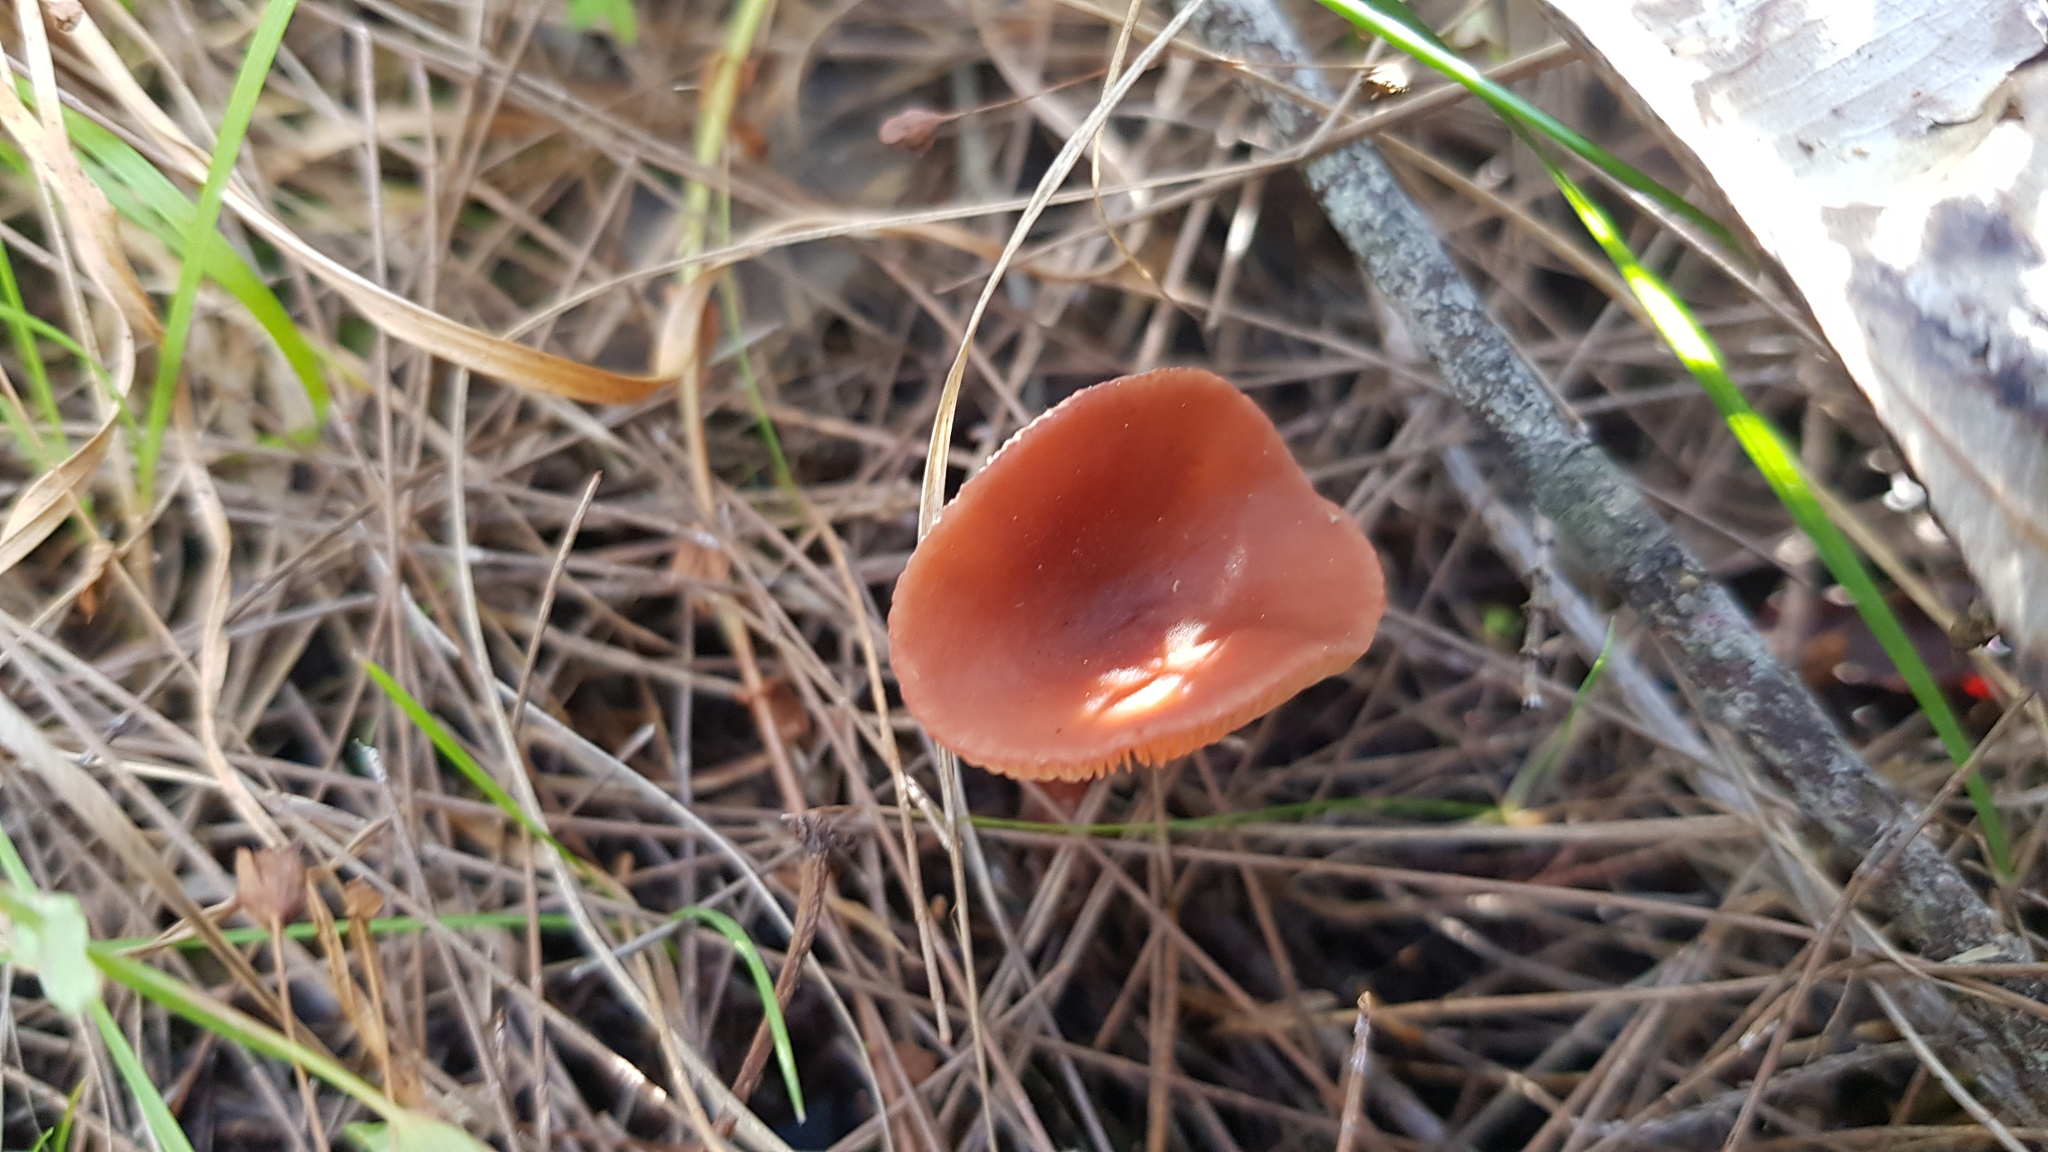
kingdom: Fungi
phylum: Basidiomycota
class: Agaricomycetes
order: Russulales
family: Russulaceae
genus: Lactarius
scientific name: Lactarius eucalypti
